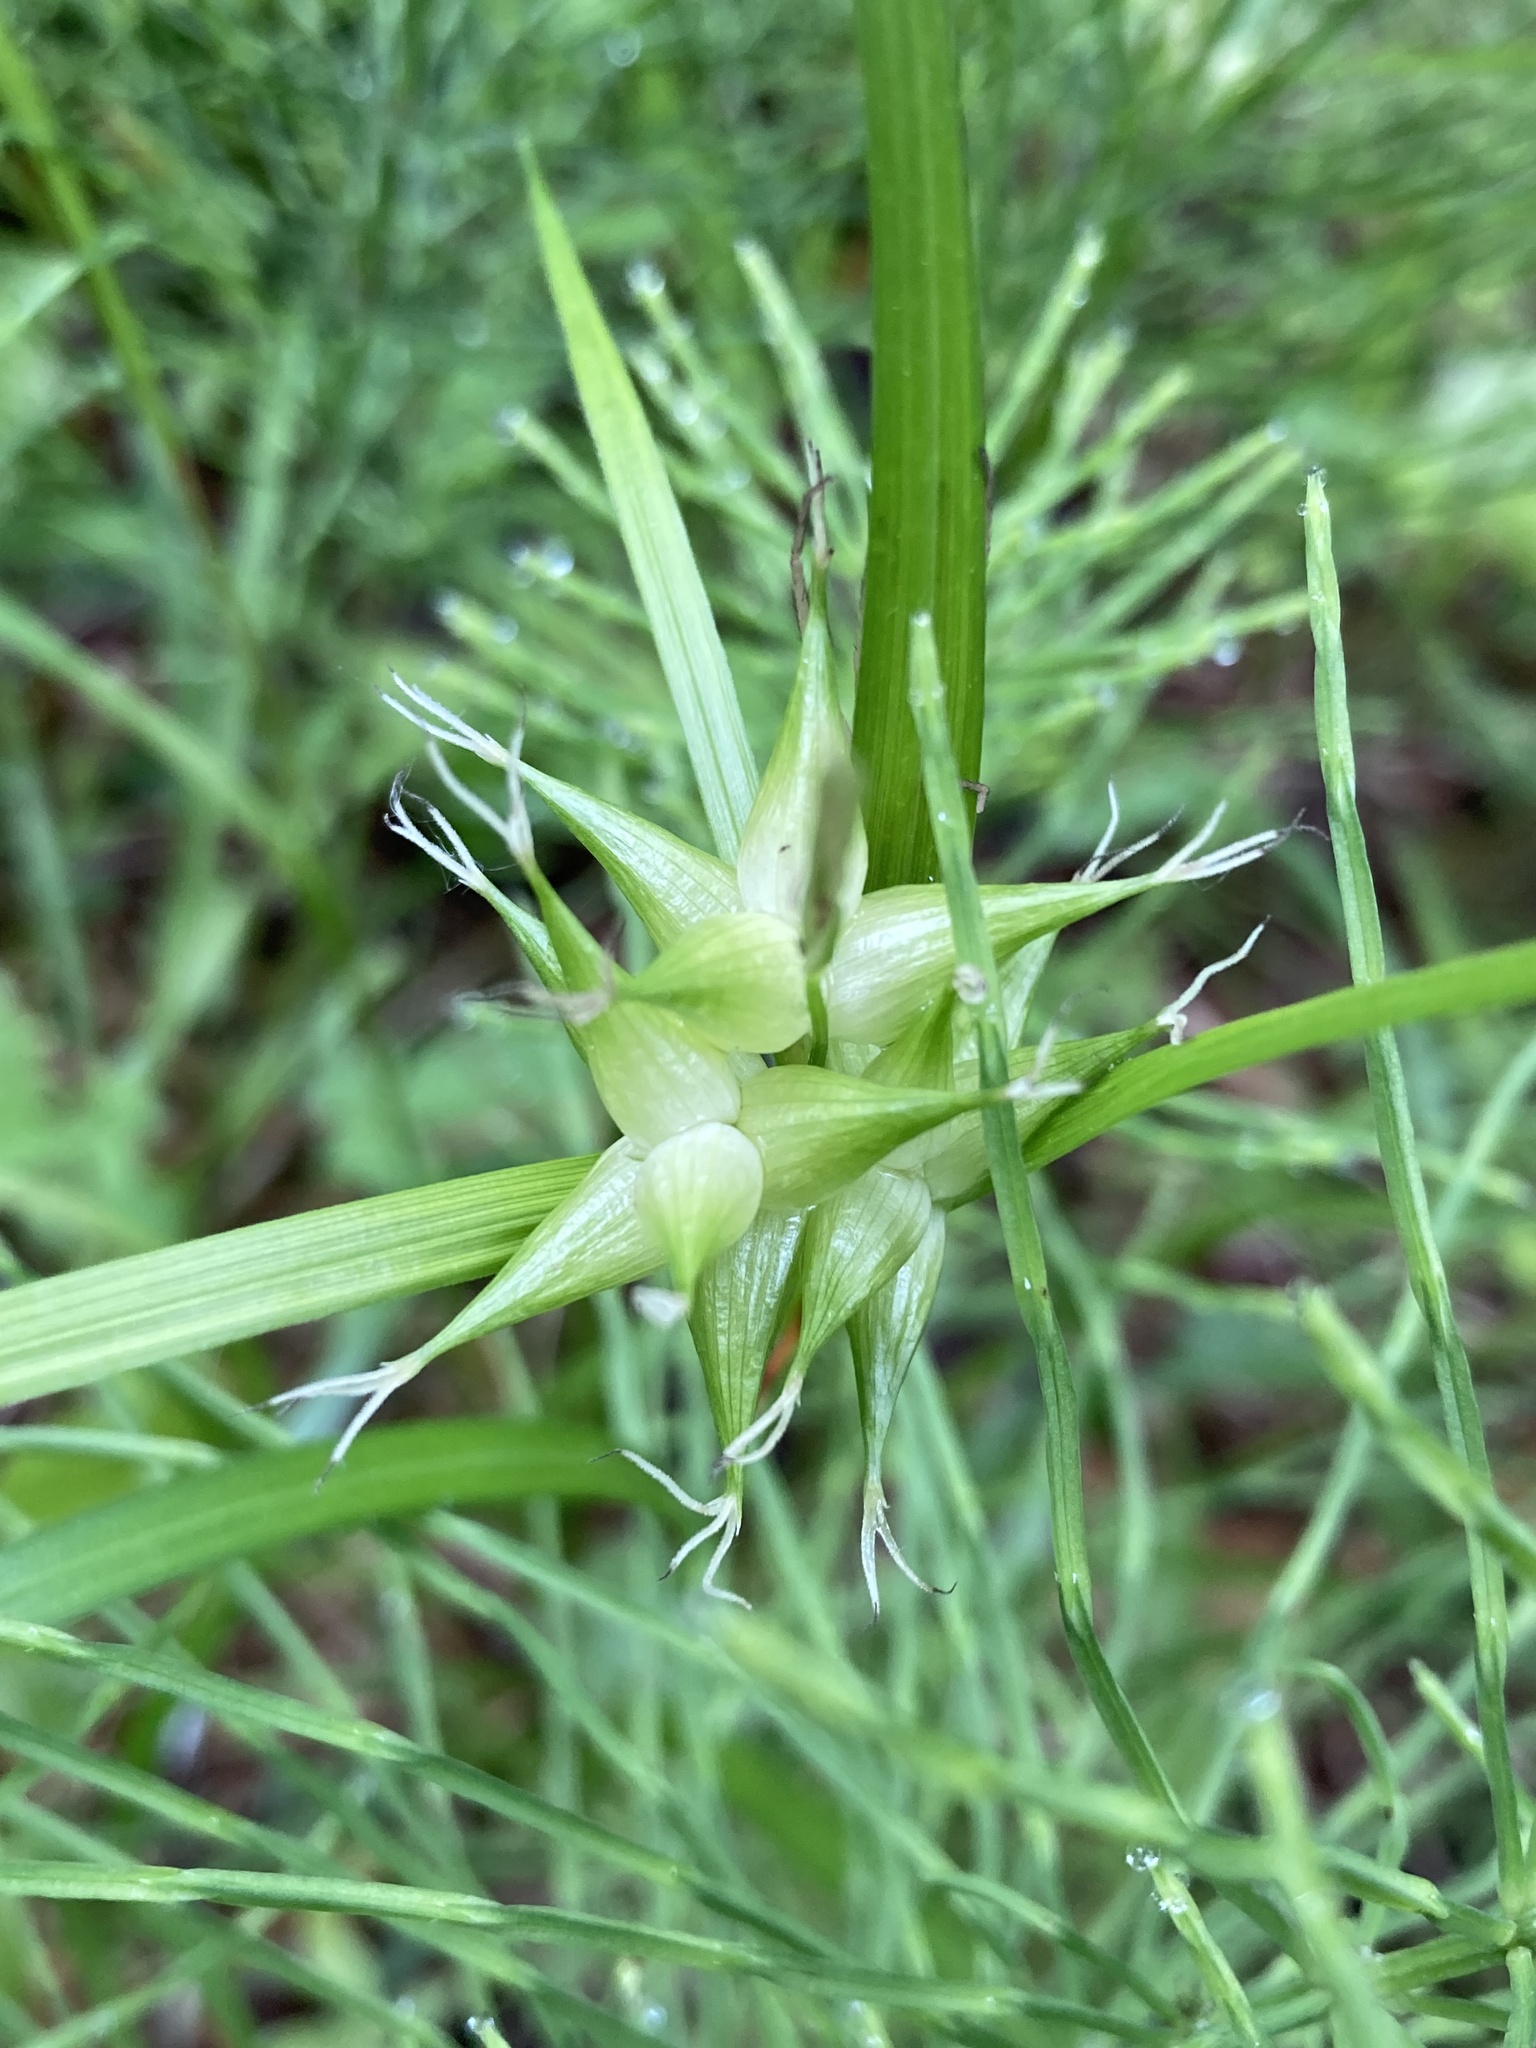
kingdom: Plantae
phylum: Tracheophyta
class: Liliopsida
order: Poales
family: Cyperaceae
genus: Carex
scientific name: Carex intumescens
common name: Greater bladder sedge
